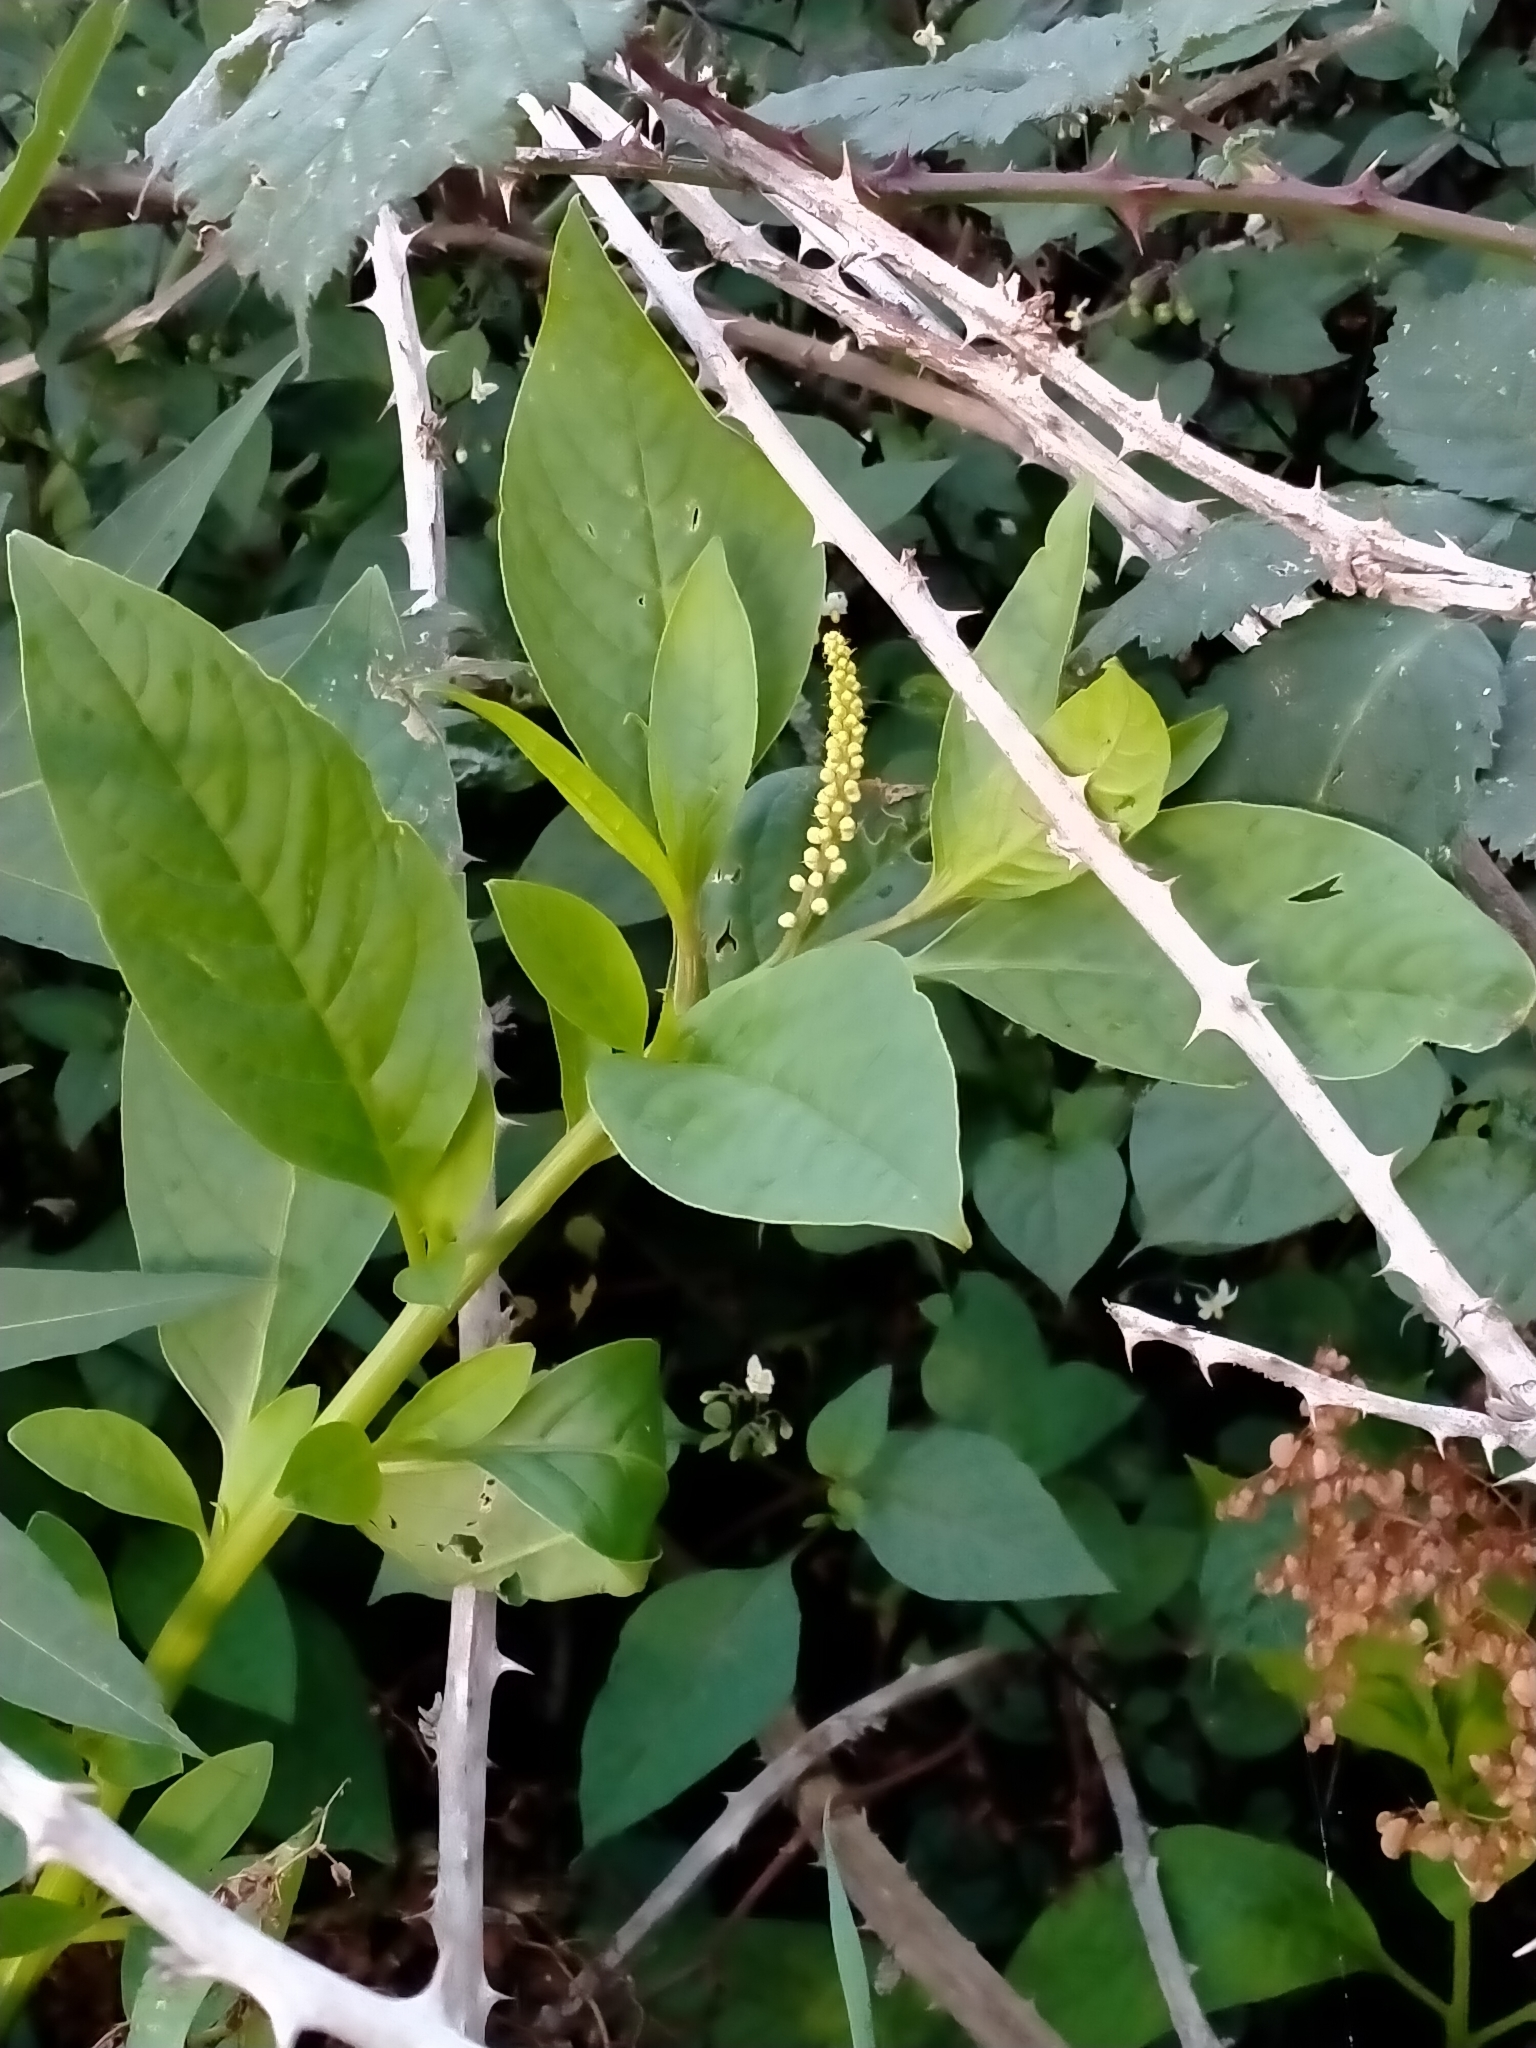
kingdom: Plantae
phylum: Tracheophyta
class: Magnoliopsida
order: Caryophyllales
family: Phytolaccaceae
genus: Phytolacca
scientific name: Phytolacca icosandra
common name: Button pokeweed
